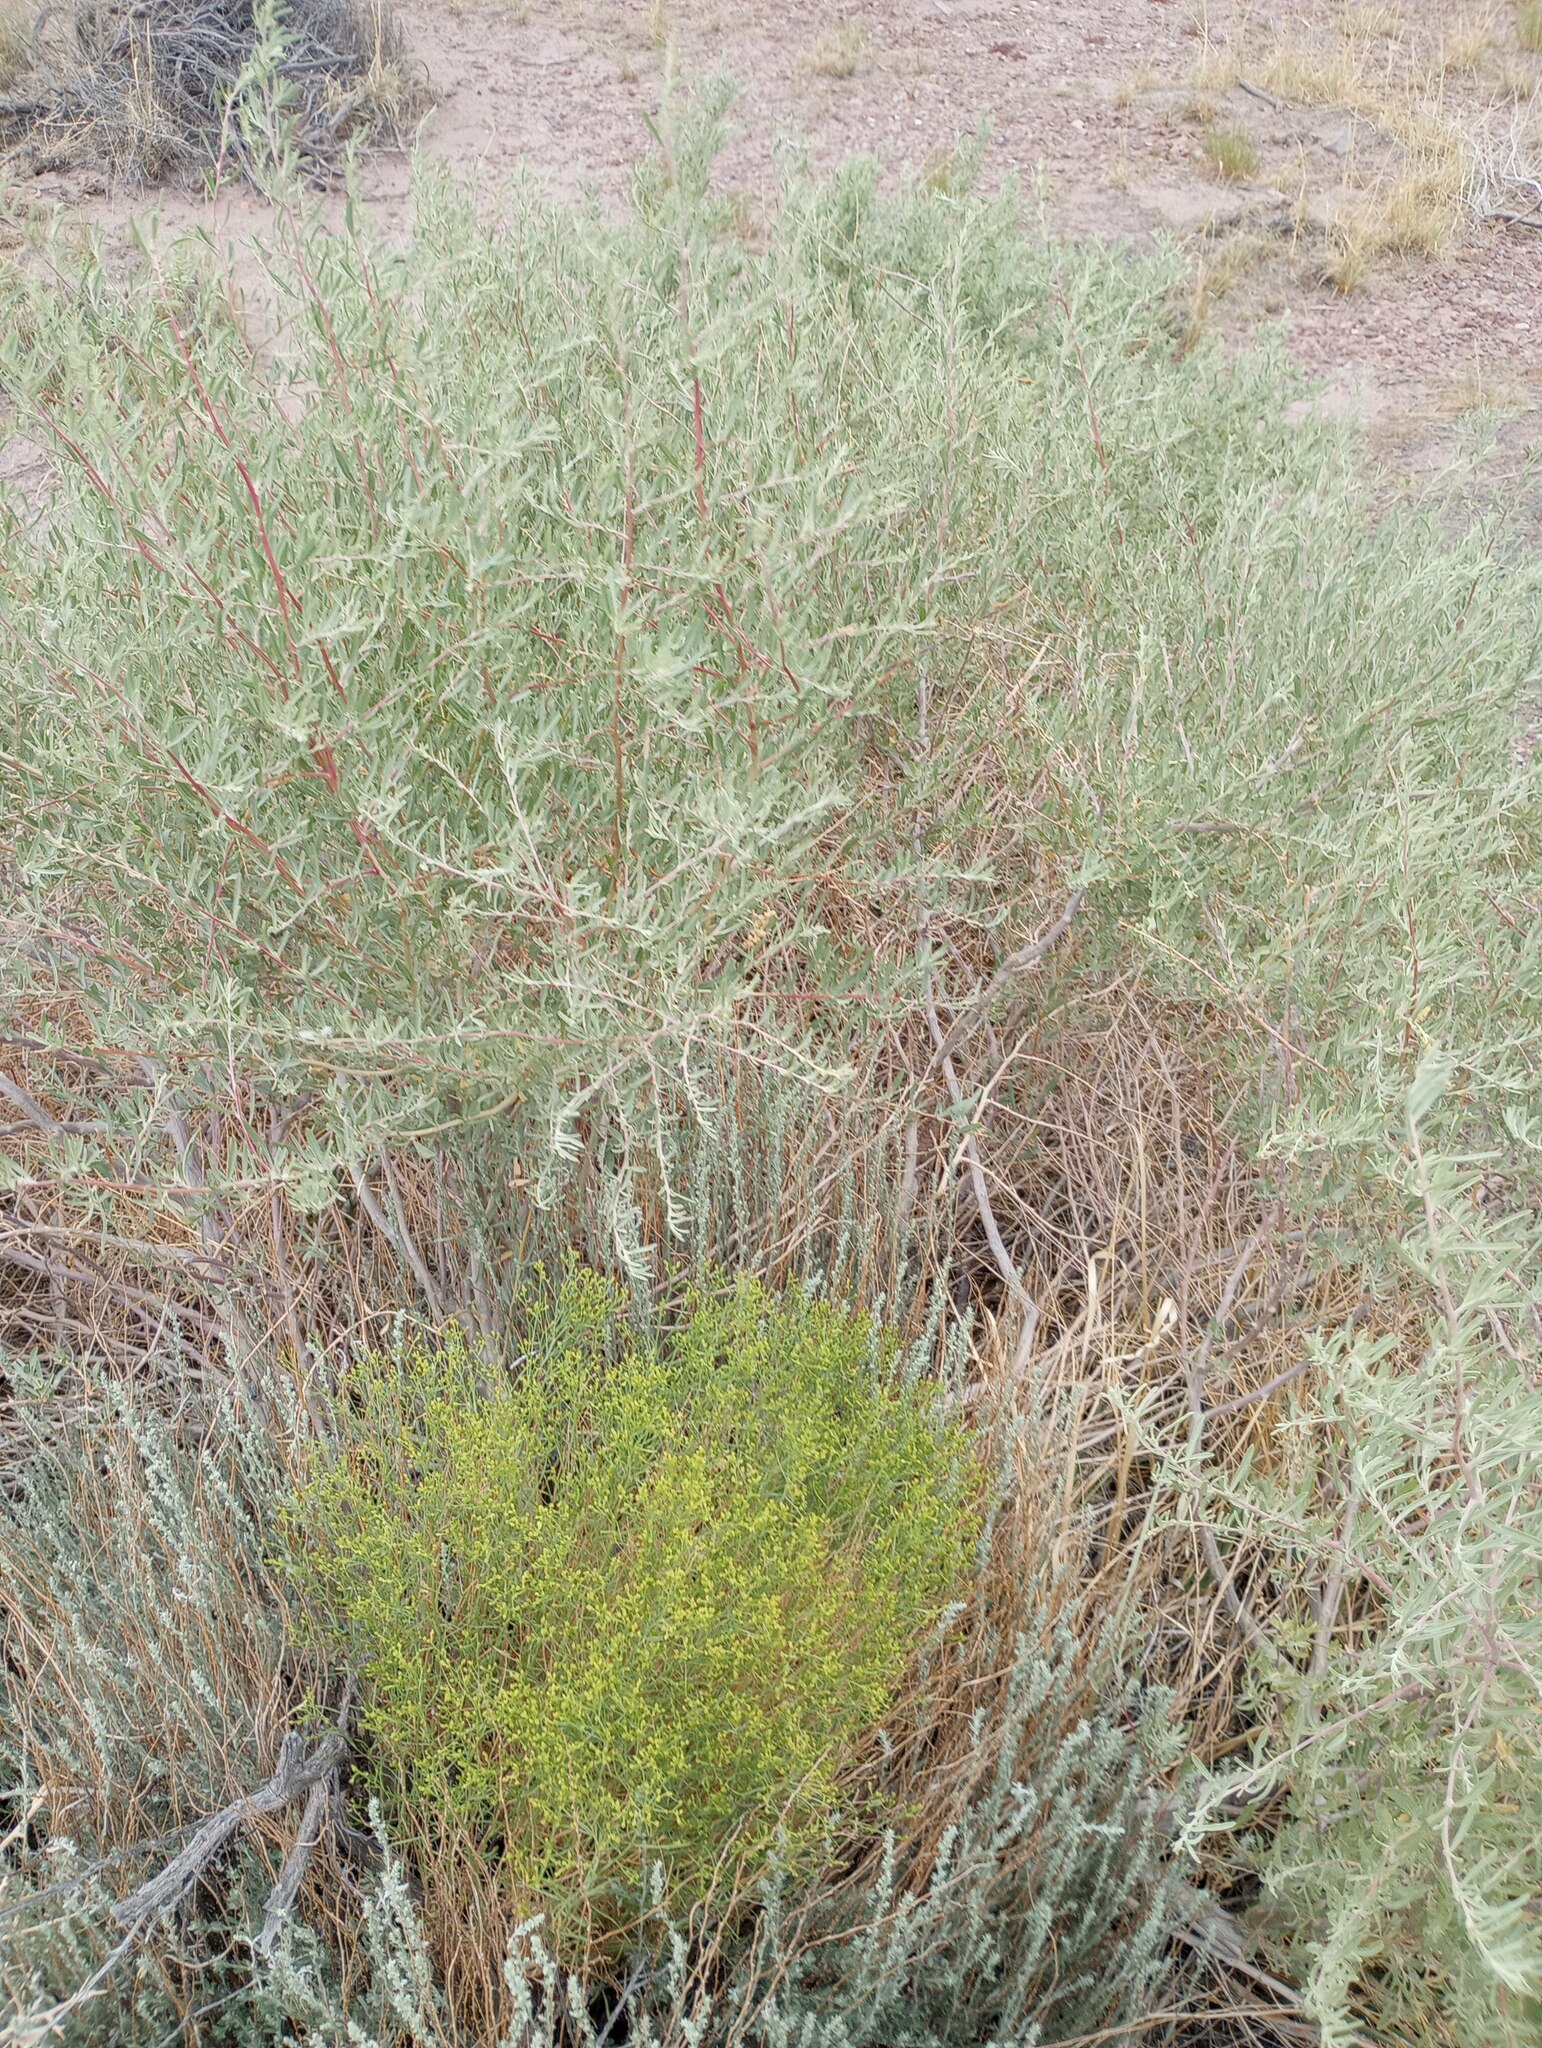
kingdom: Plantae
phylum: Tracheophyta
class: Magnoliopsida
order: Caryophyllales
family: Amaranthaceae
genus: Atriplex
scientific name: Atriplex canescens
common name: Four-wing saltbush
